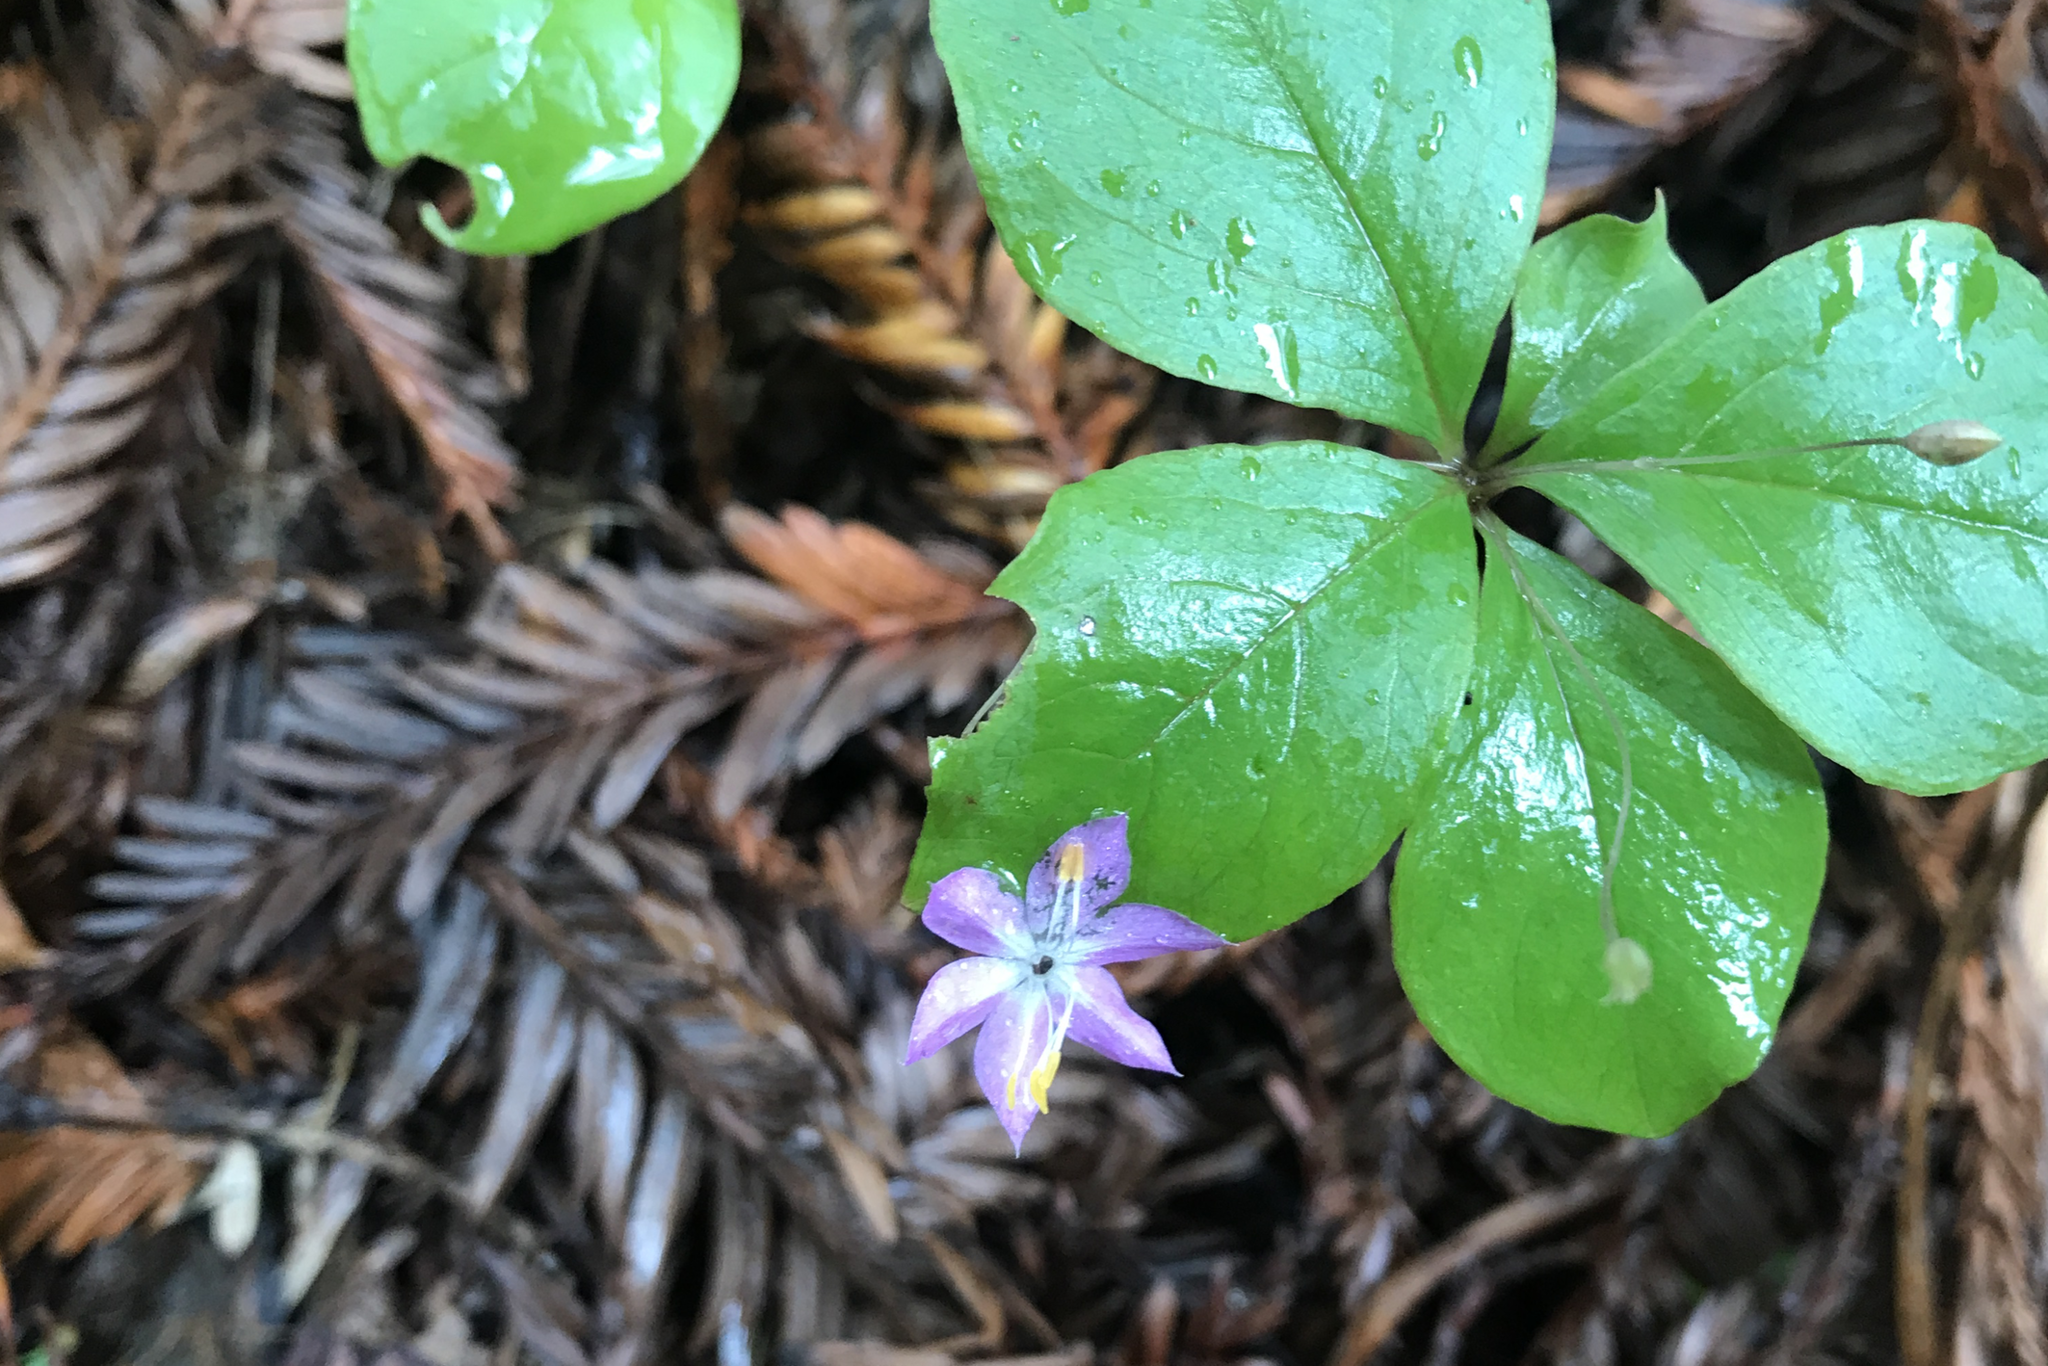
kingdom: Plantae
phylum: Tracheophyta
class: Magnoliopsida
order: Ericales
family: Primulaceae
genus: Lysimachia
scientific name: Lysimachia latifolia
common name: Pacific starflower
